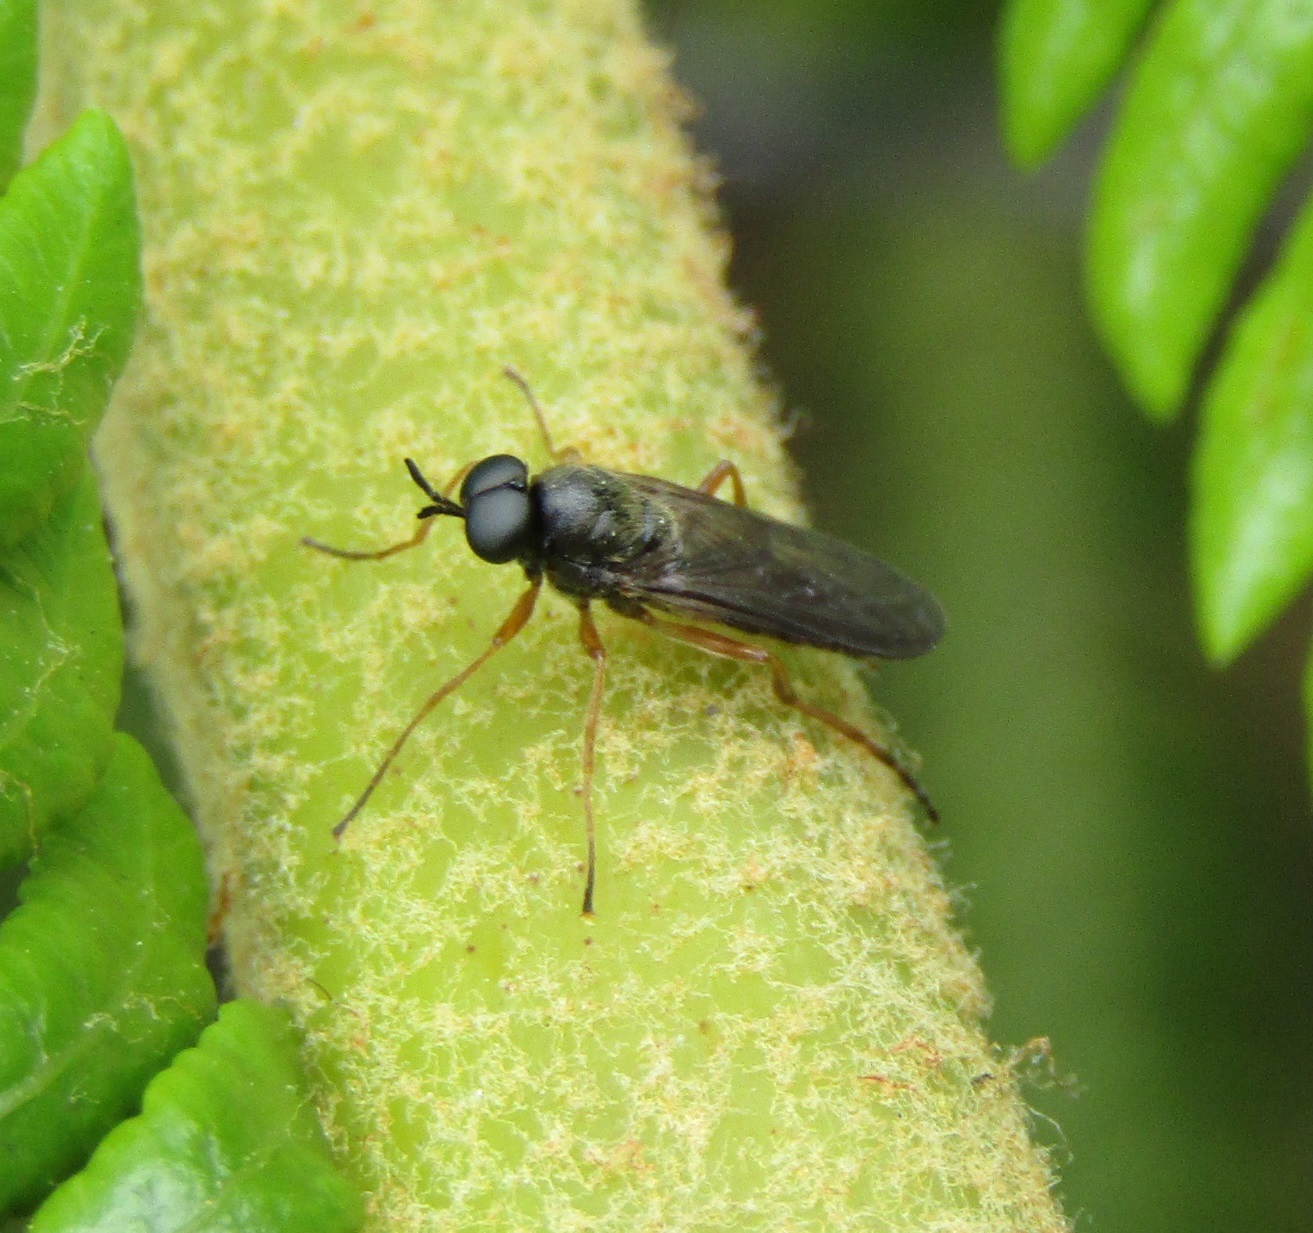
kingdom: Animalia
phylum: Arthropoda
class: Insecta
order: Diptera
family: Stratiomyidae
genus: Inopus
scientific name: Inopus rubriceps
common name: Soldier fly
